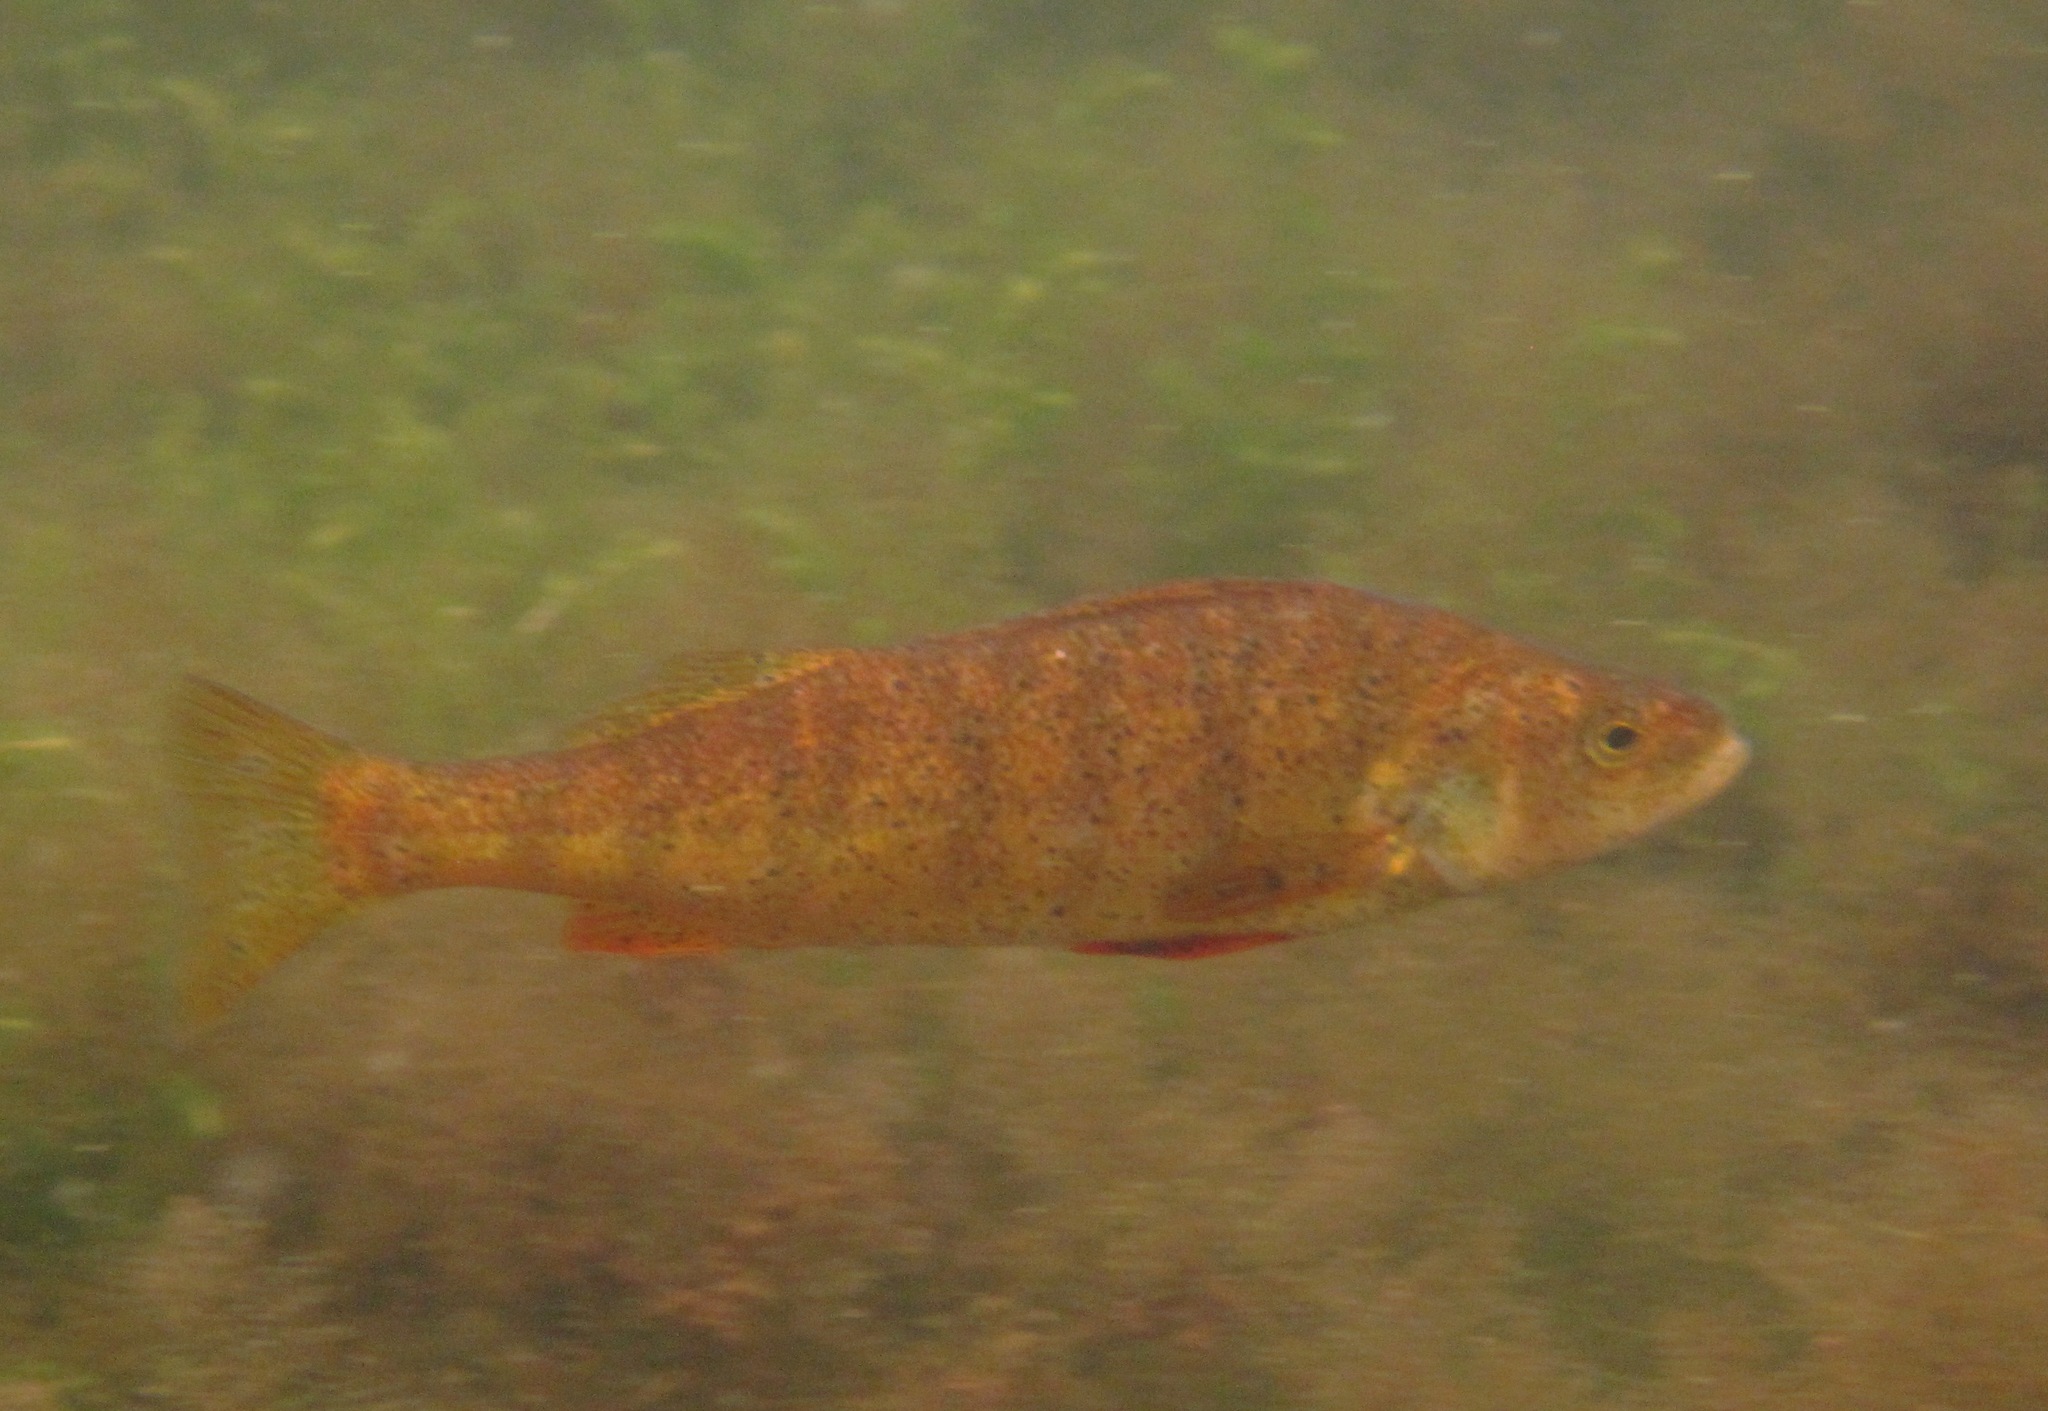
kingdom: Animalia
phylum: Chordata
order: Perciformes
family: Percidae
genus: Perca
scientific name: Perca flavescens
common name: Yellow perch
